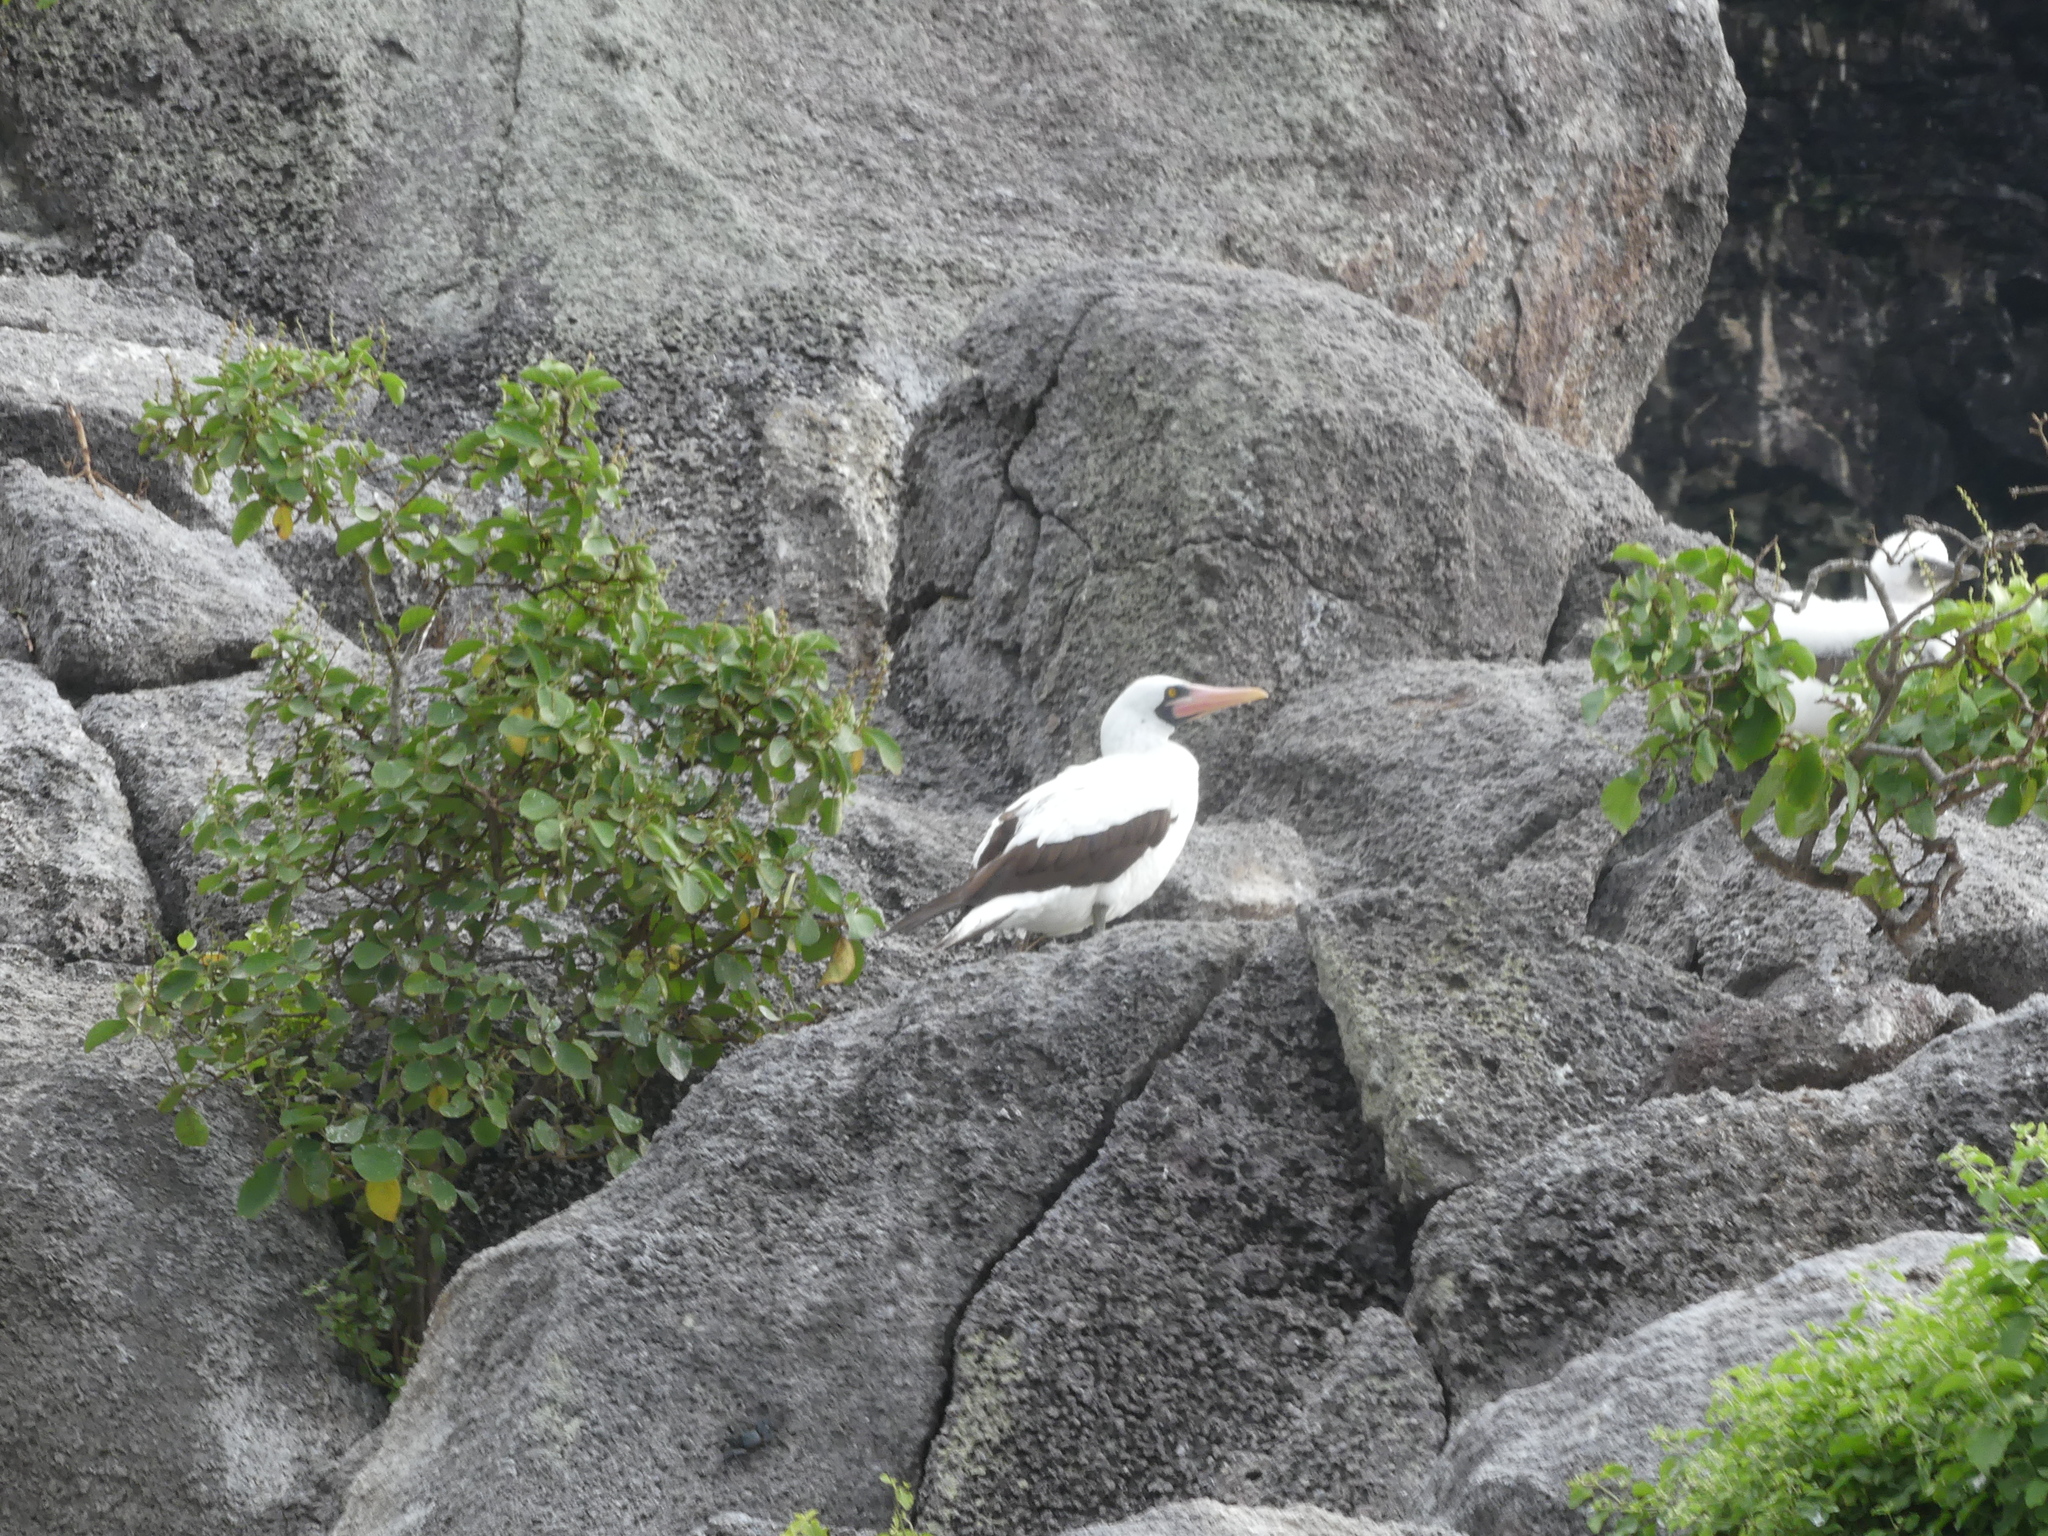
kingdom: Animalia
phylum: Chordata
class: Aves
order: Suliformes
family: Sulidae
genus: Sula
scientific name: Sula granti
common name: Nazca booby
